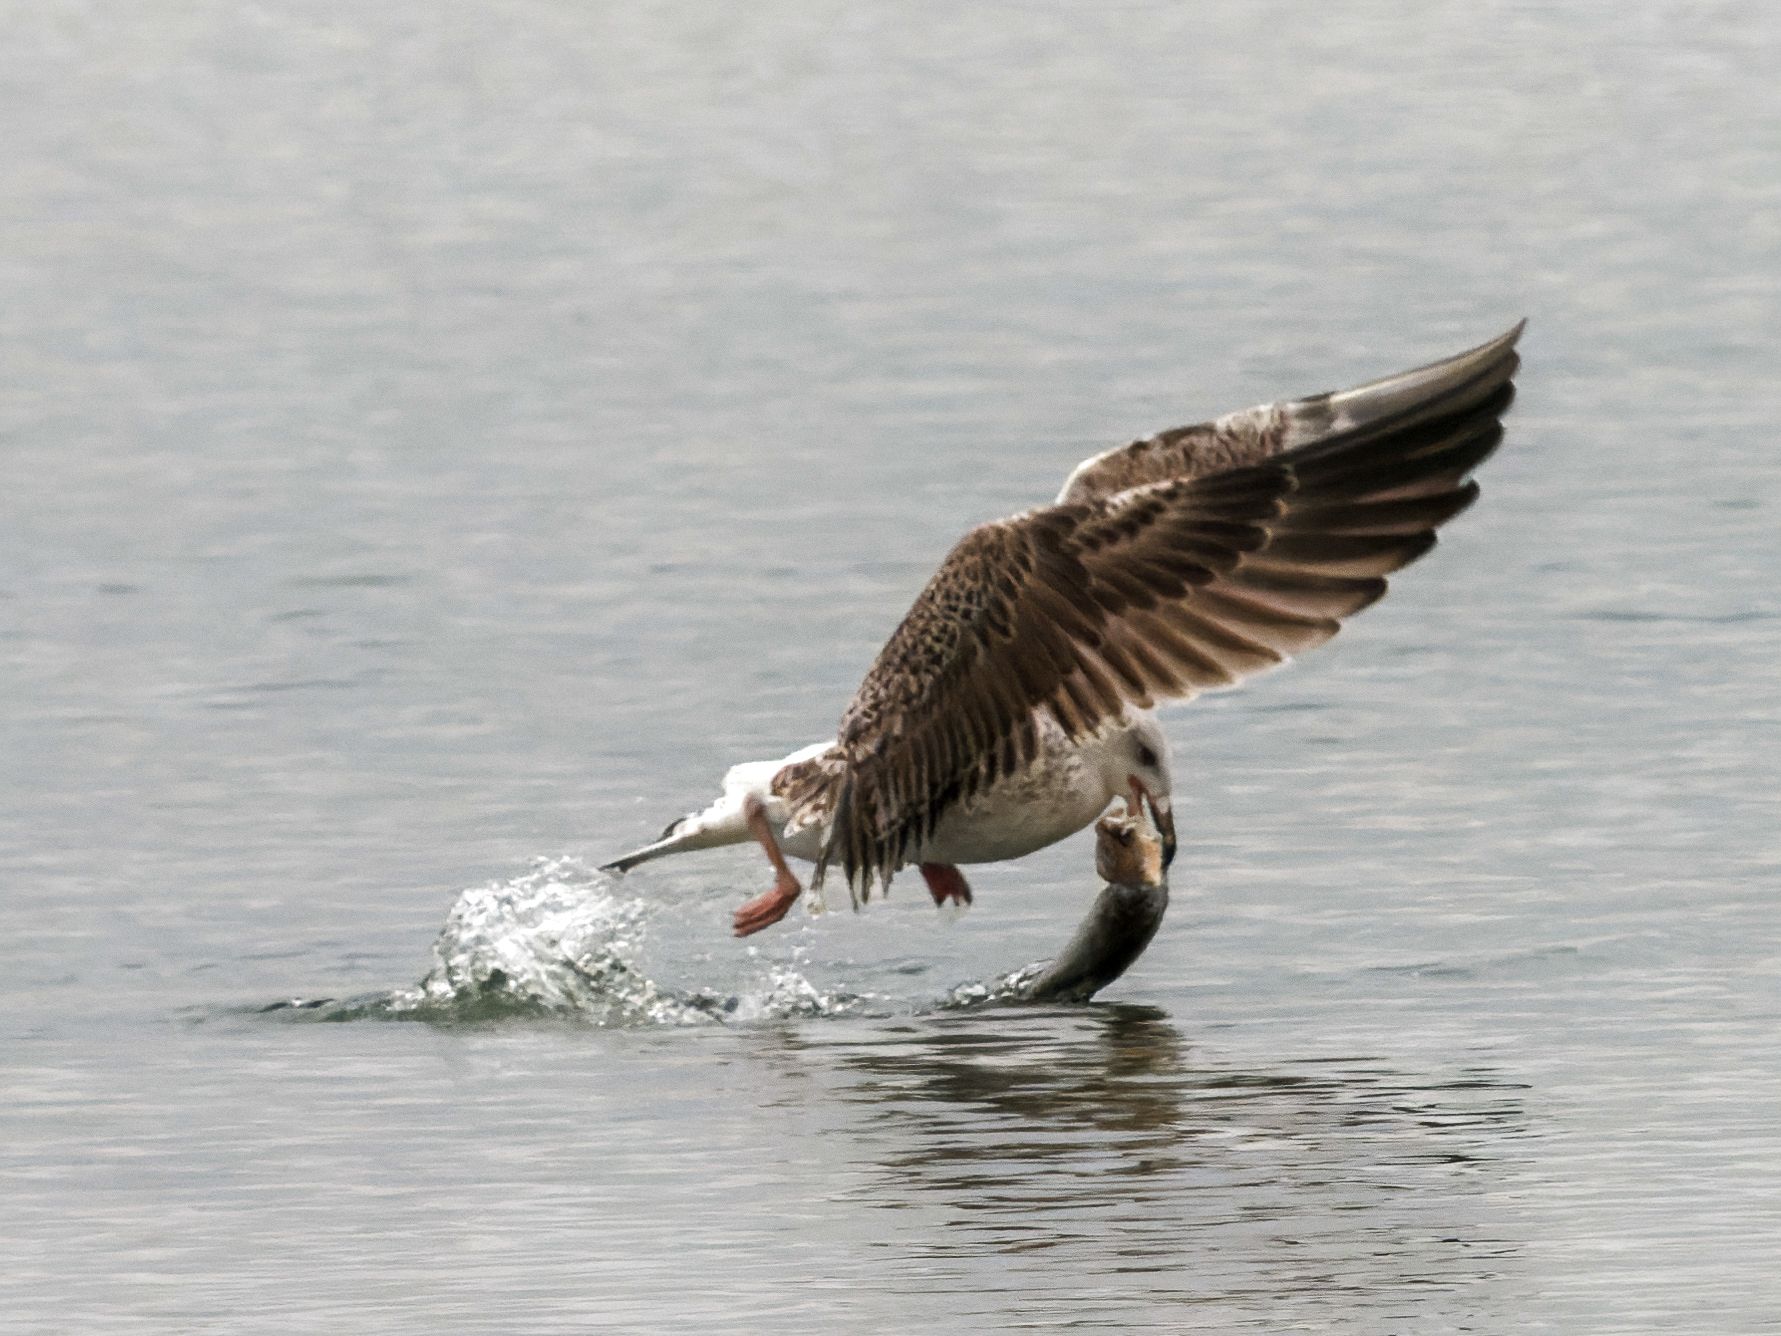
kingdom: Animalia
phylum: Chordata
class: Aves
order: Charadriiformes
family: Laridae
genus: Larus
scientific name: Larus marinus
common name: Great black-backed gull
